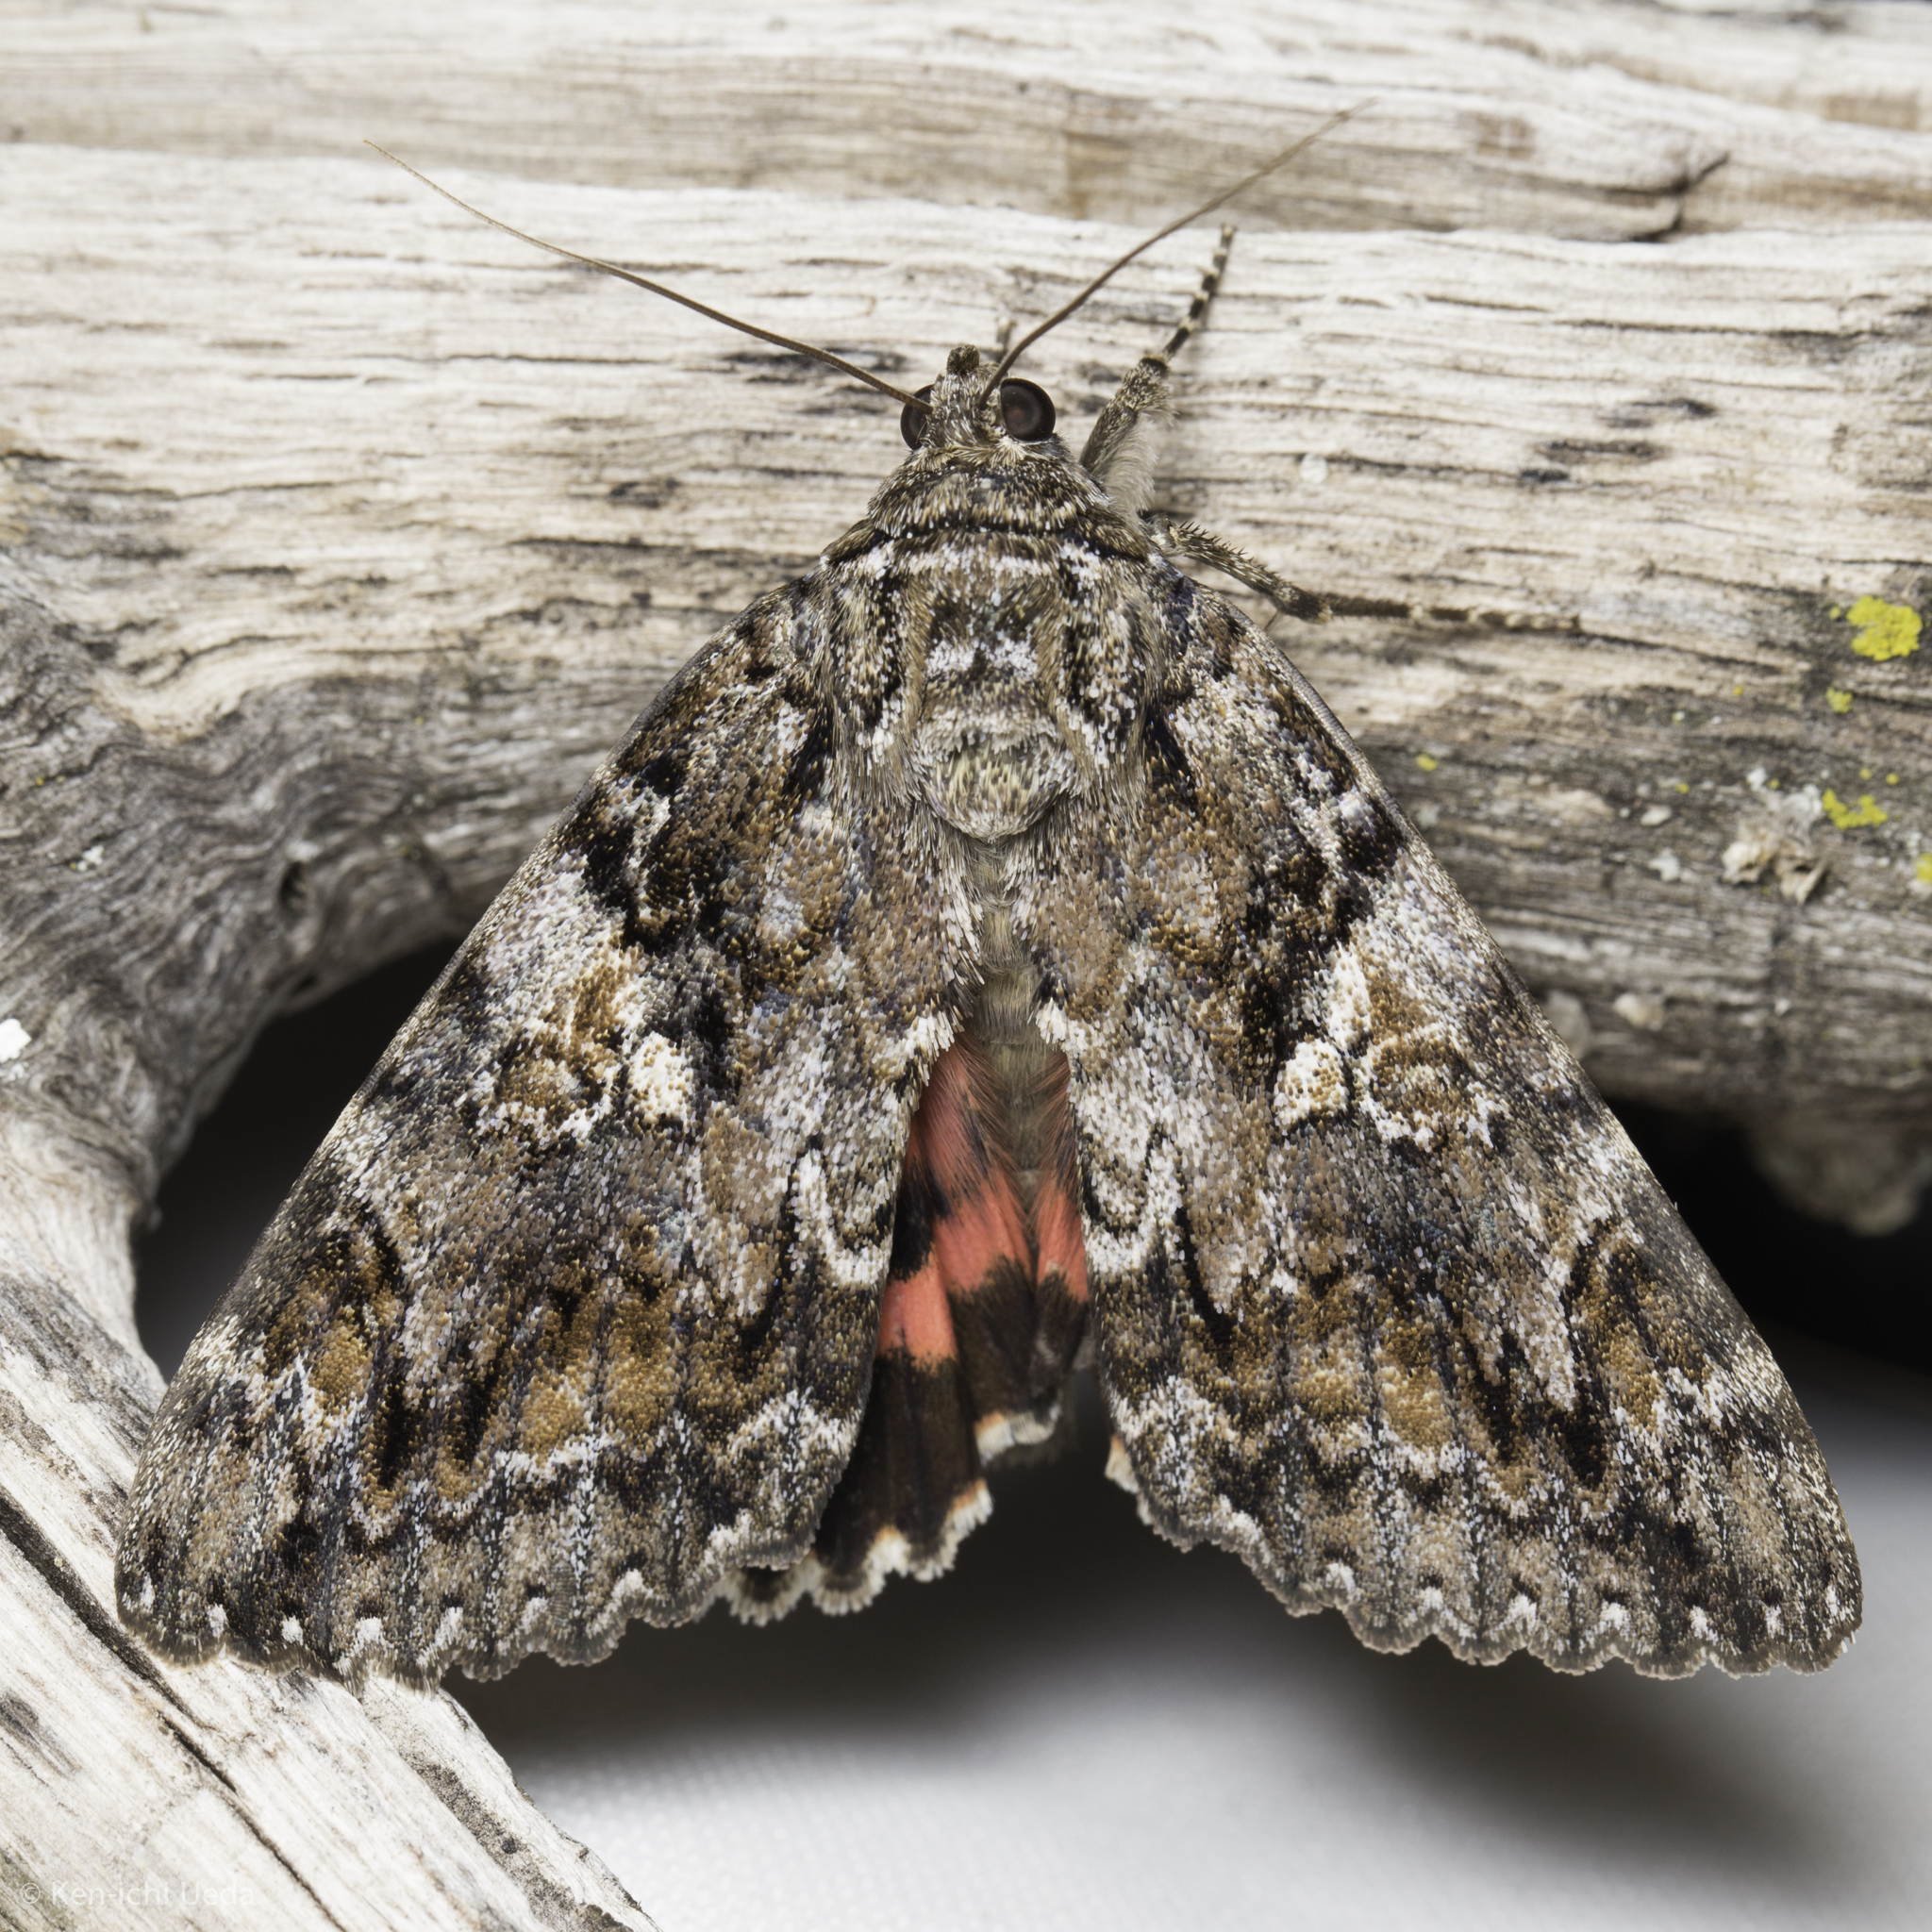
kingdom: Animalia
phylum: Arthropoda
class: Insecta
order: Lepidoptera
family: Erebidae
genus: Catocala
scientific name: Catocala aholibah
